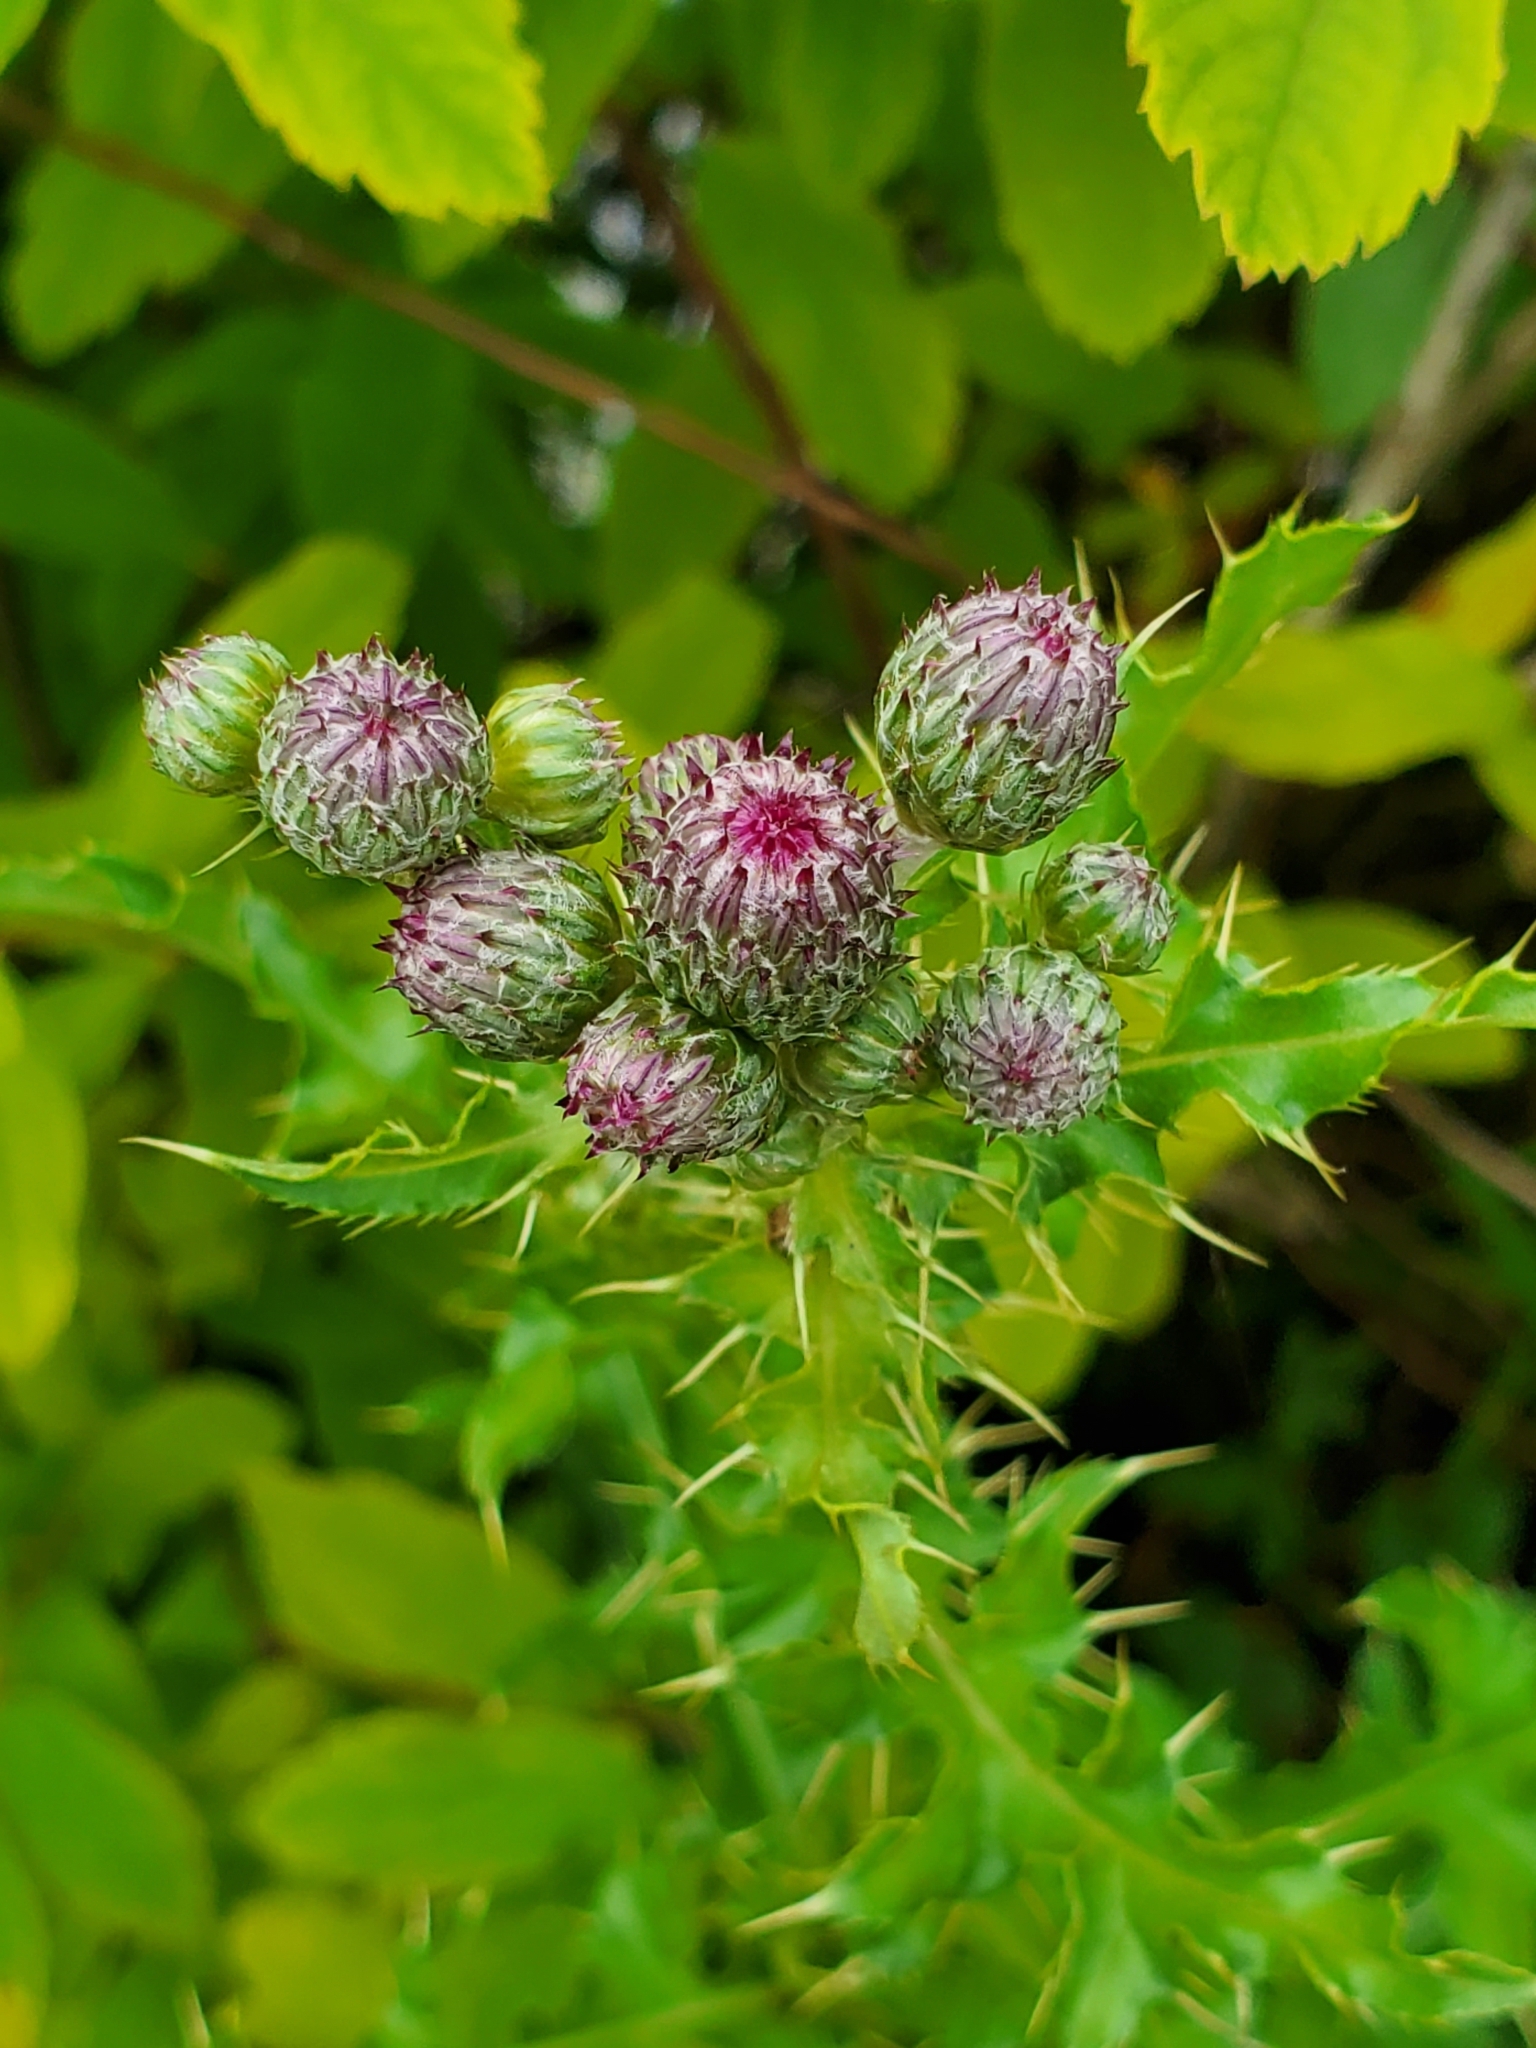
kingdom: Plantae
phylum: Tracheophyta
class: Magnoliopsida
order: Asterales
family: Asteraceae
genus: Cirsium
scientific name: Cirsium arvense
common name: Creeping thistle
